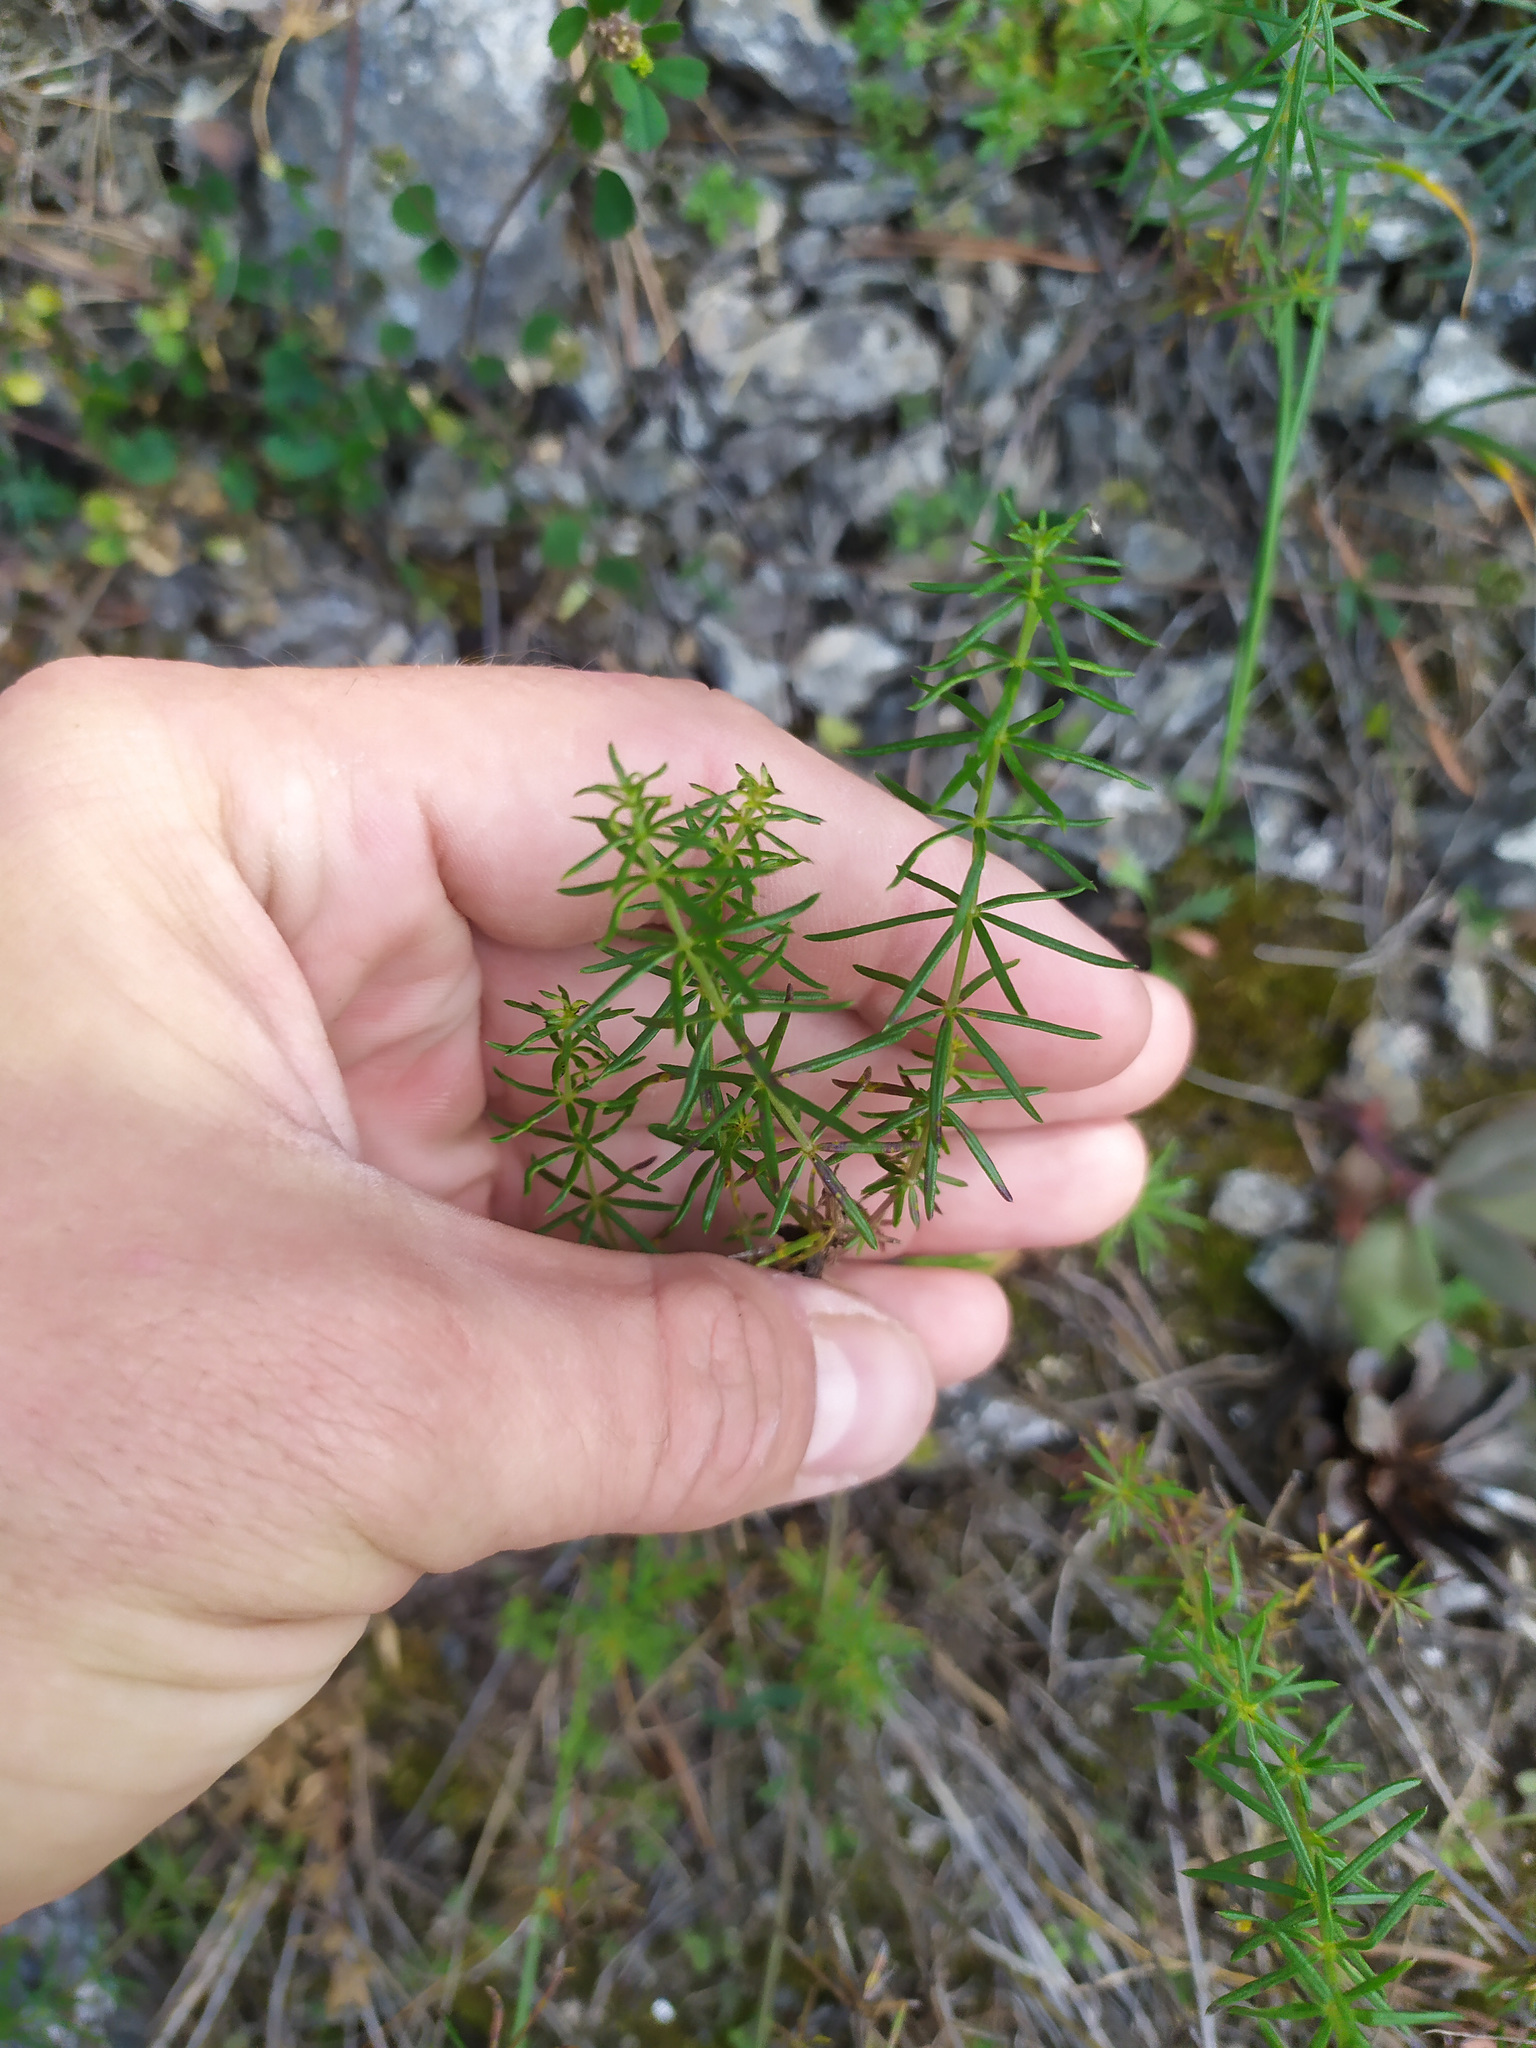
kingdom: Plantae
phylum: Tracheophyta
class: Magnoliopsida
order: Gentianales
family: Rubiaceae
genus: Galium
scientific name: Galium verum
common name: Lady's bedstraw
